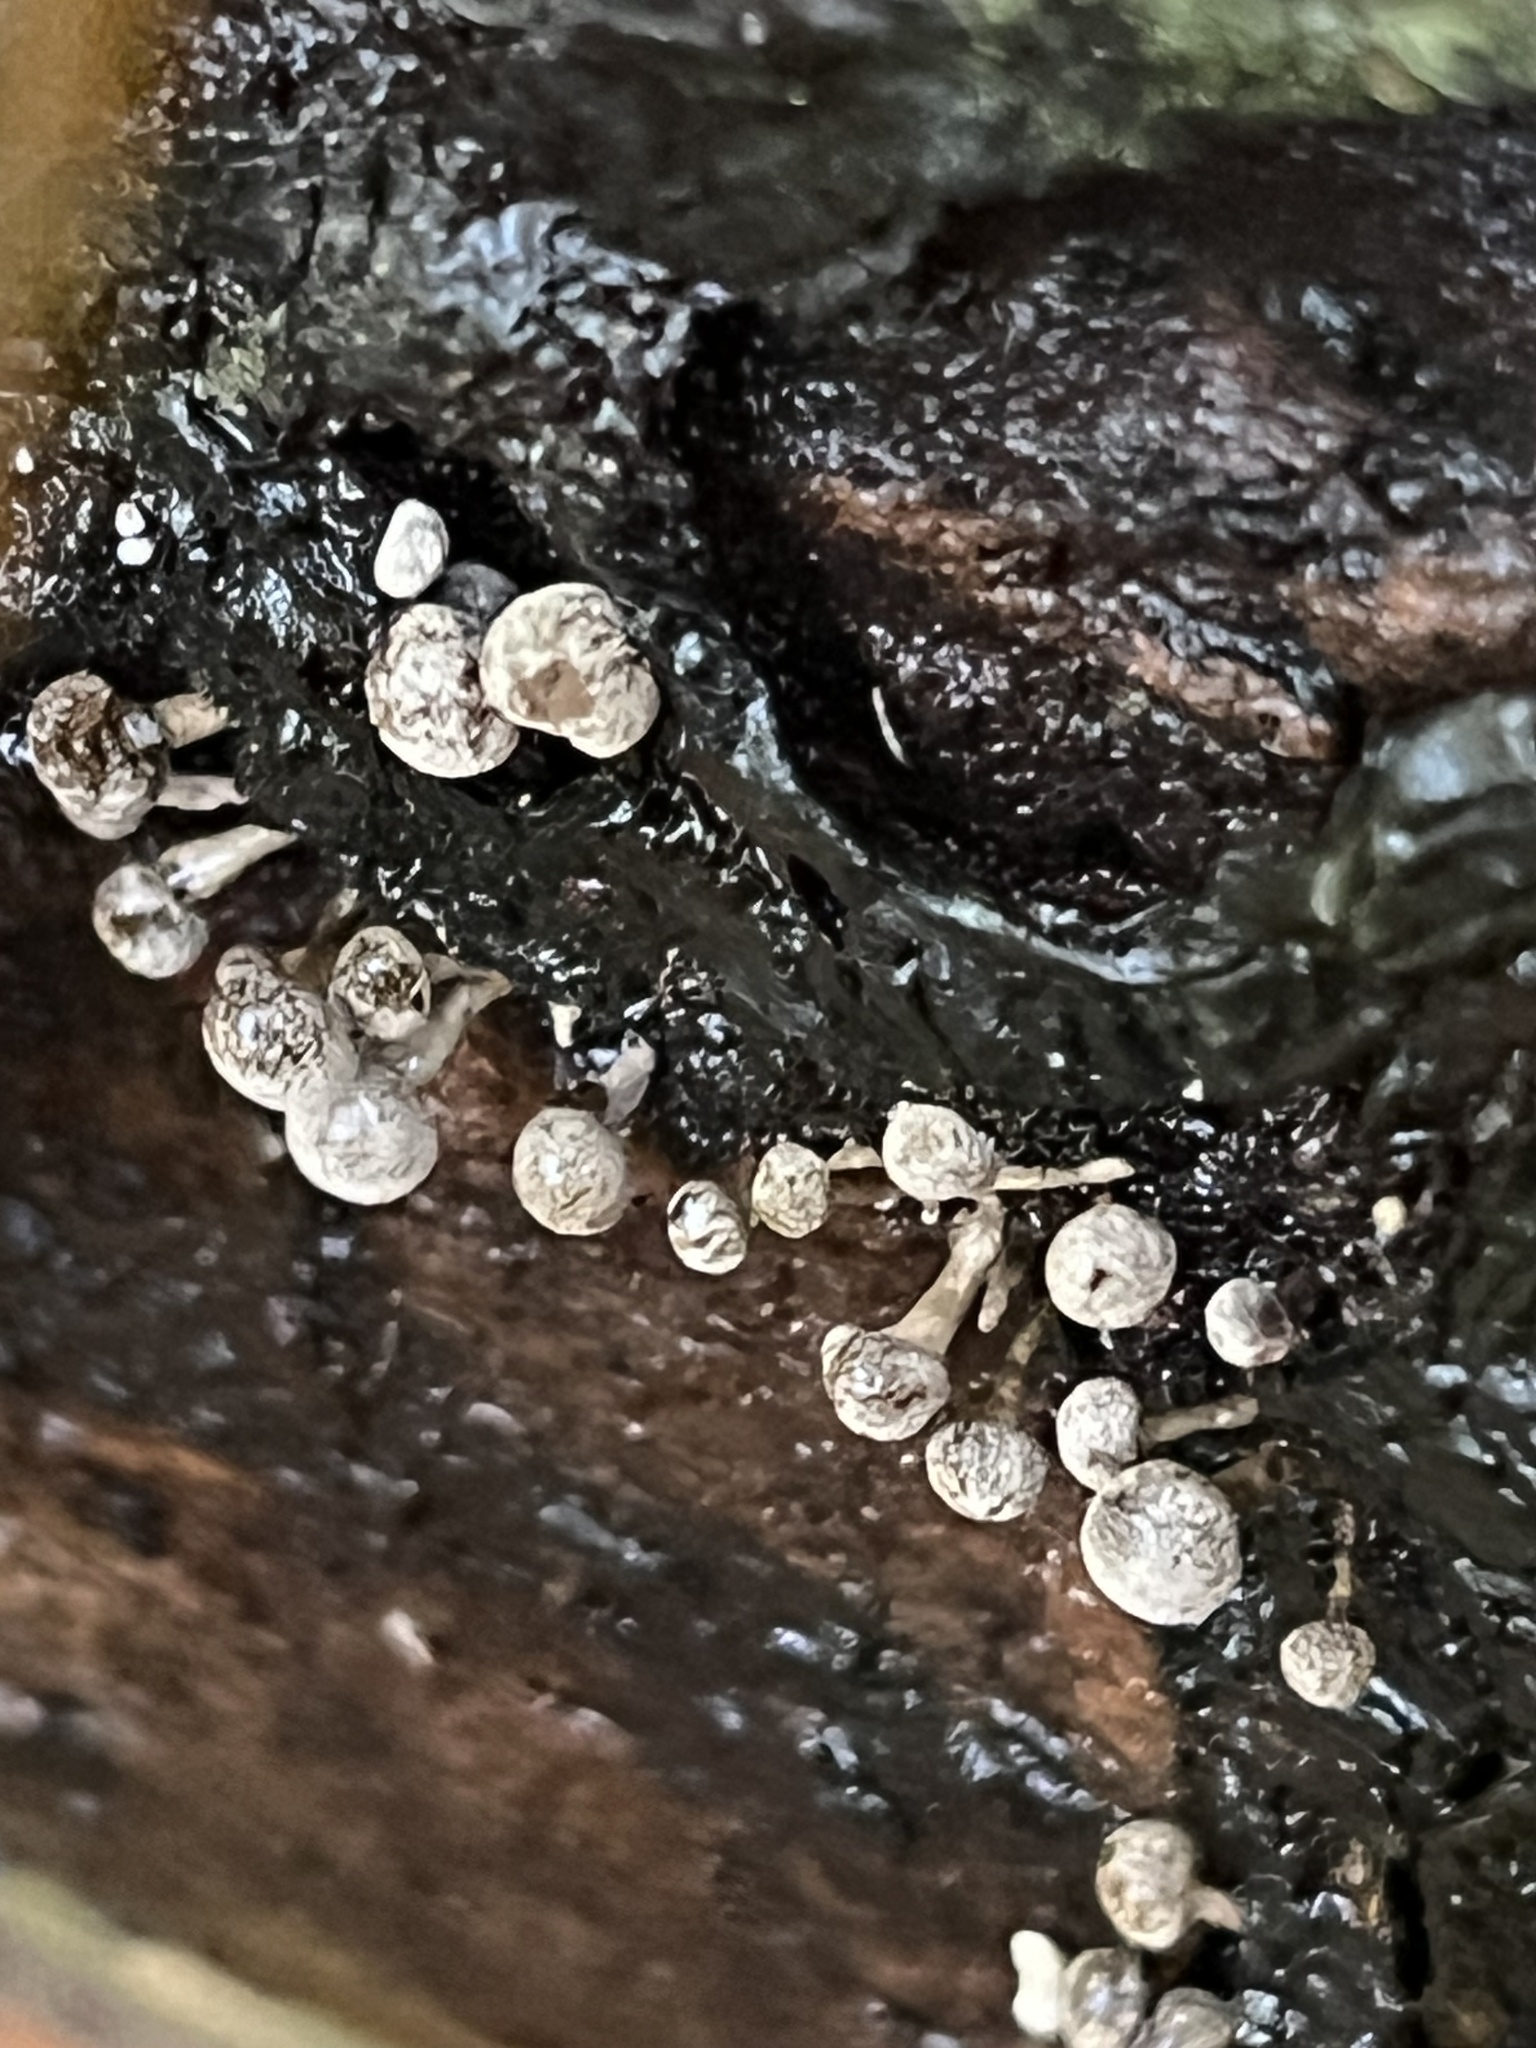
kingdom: Fungi
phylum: Basidiomycota
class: Atractiellomycetes
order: Atractiellales
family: Phleogenaceae
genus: Phleogena
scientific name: Phleogena faginea
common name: Fenugreek stalkball
